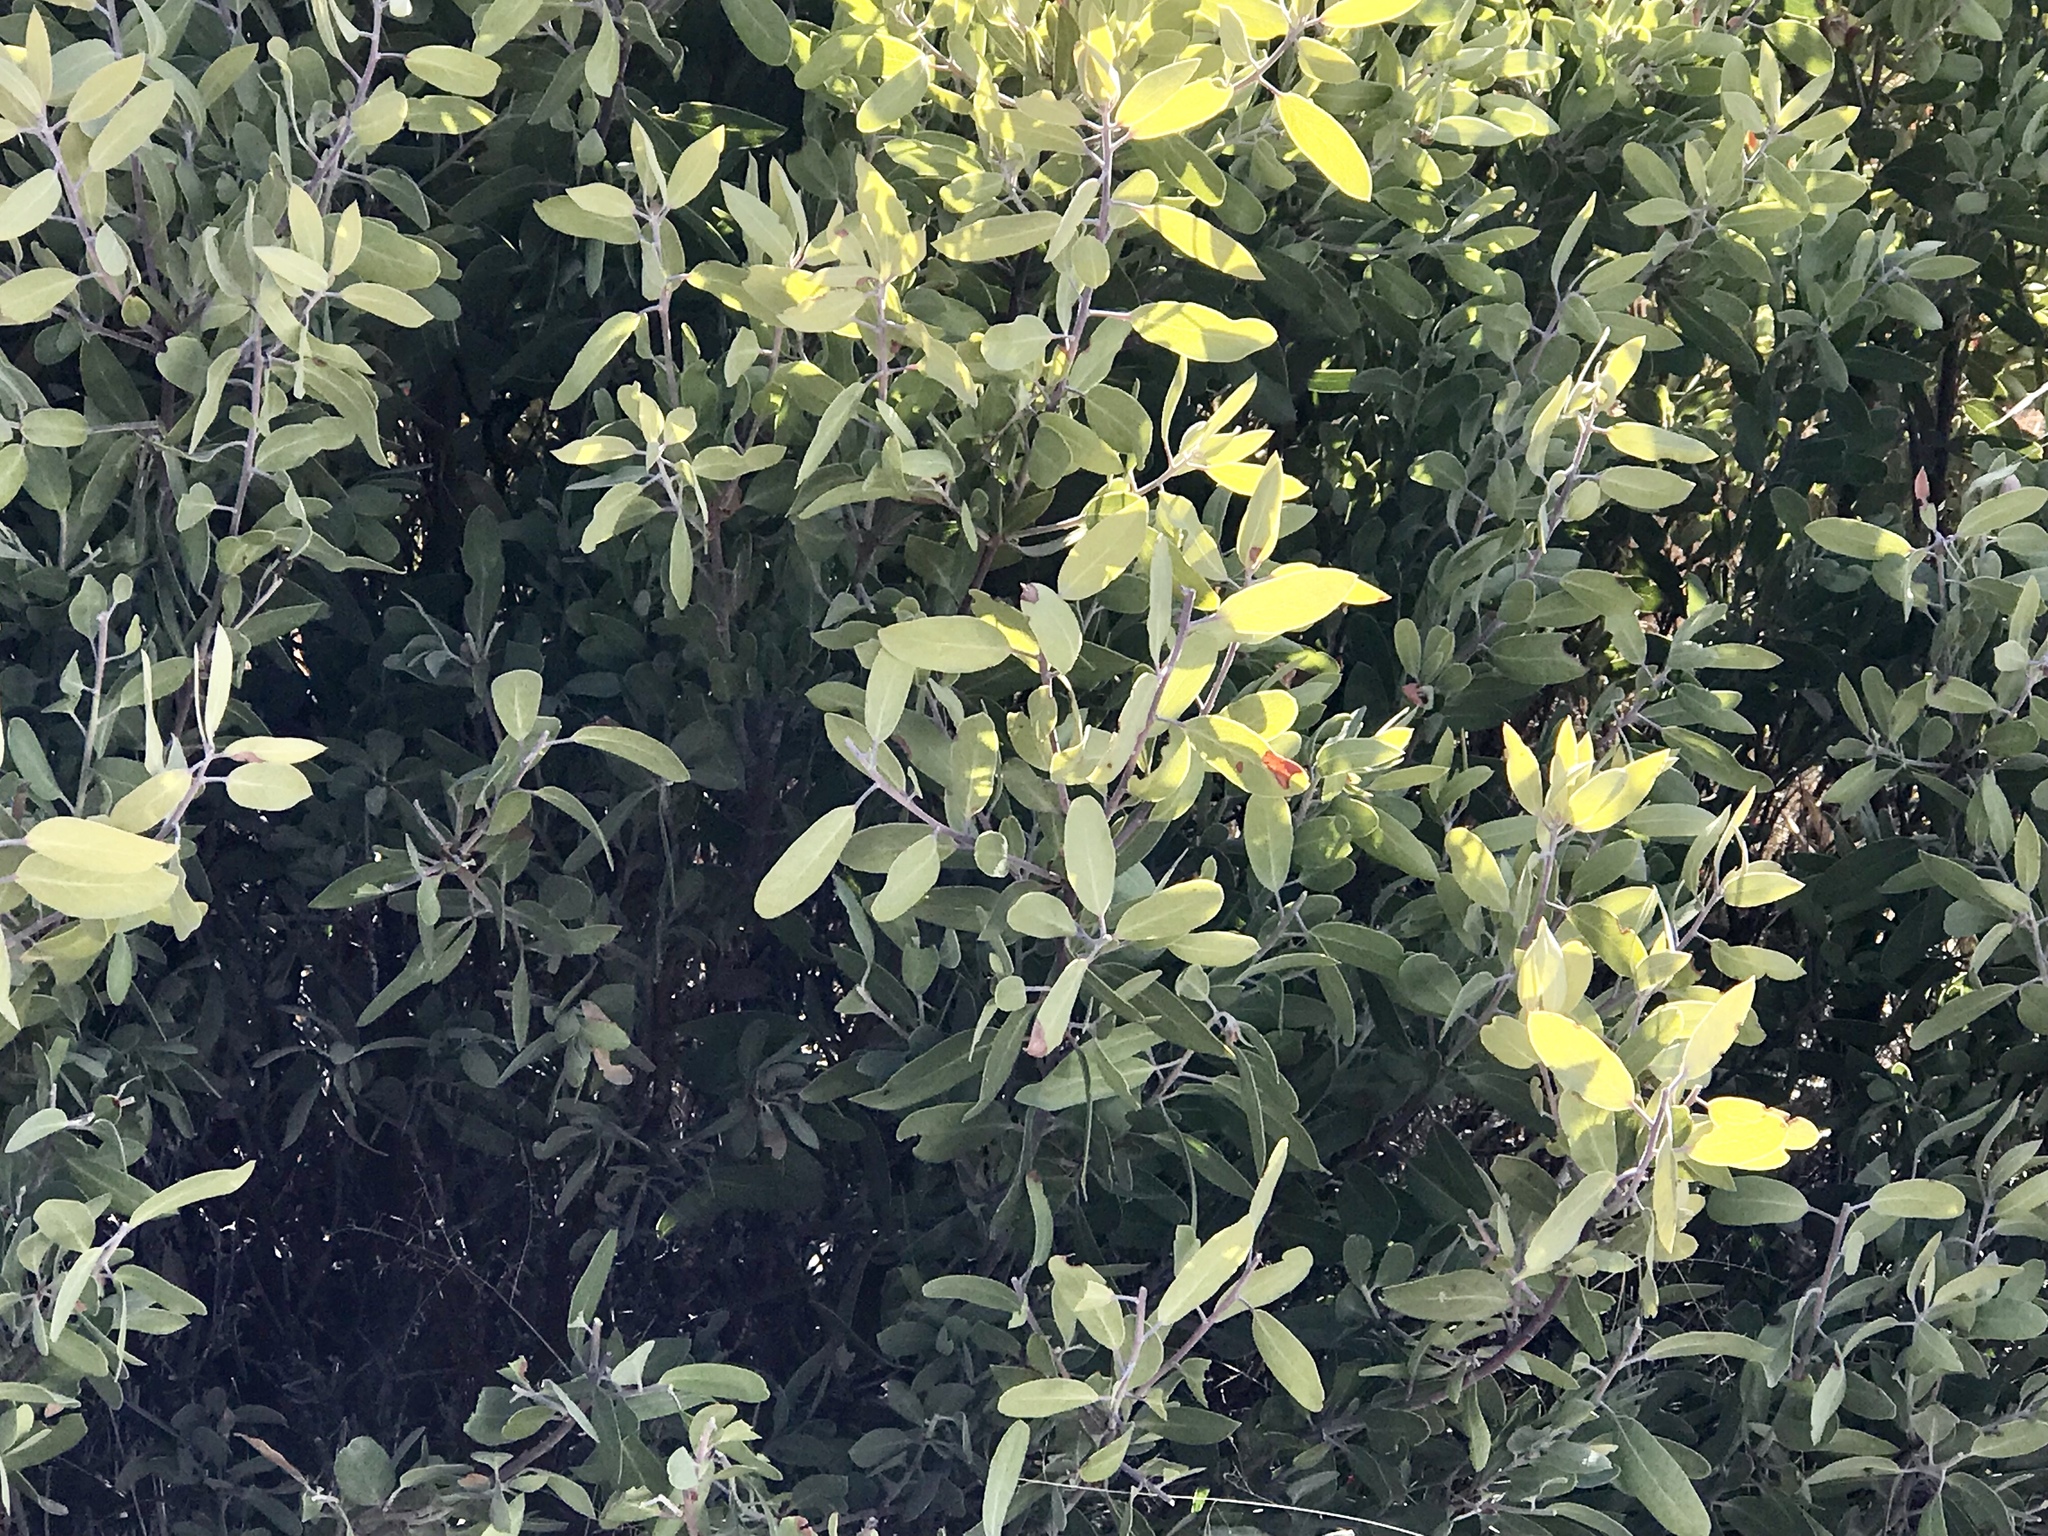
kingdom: Plantae
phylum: Tracheophyta
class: Magnoliopsida
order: Ericales
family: Ericaceae
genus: Arctostaphylos
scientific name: Arctostaphylos pungens
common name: Mexican manzanita
